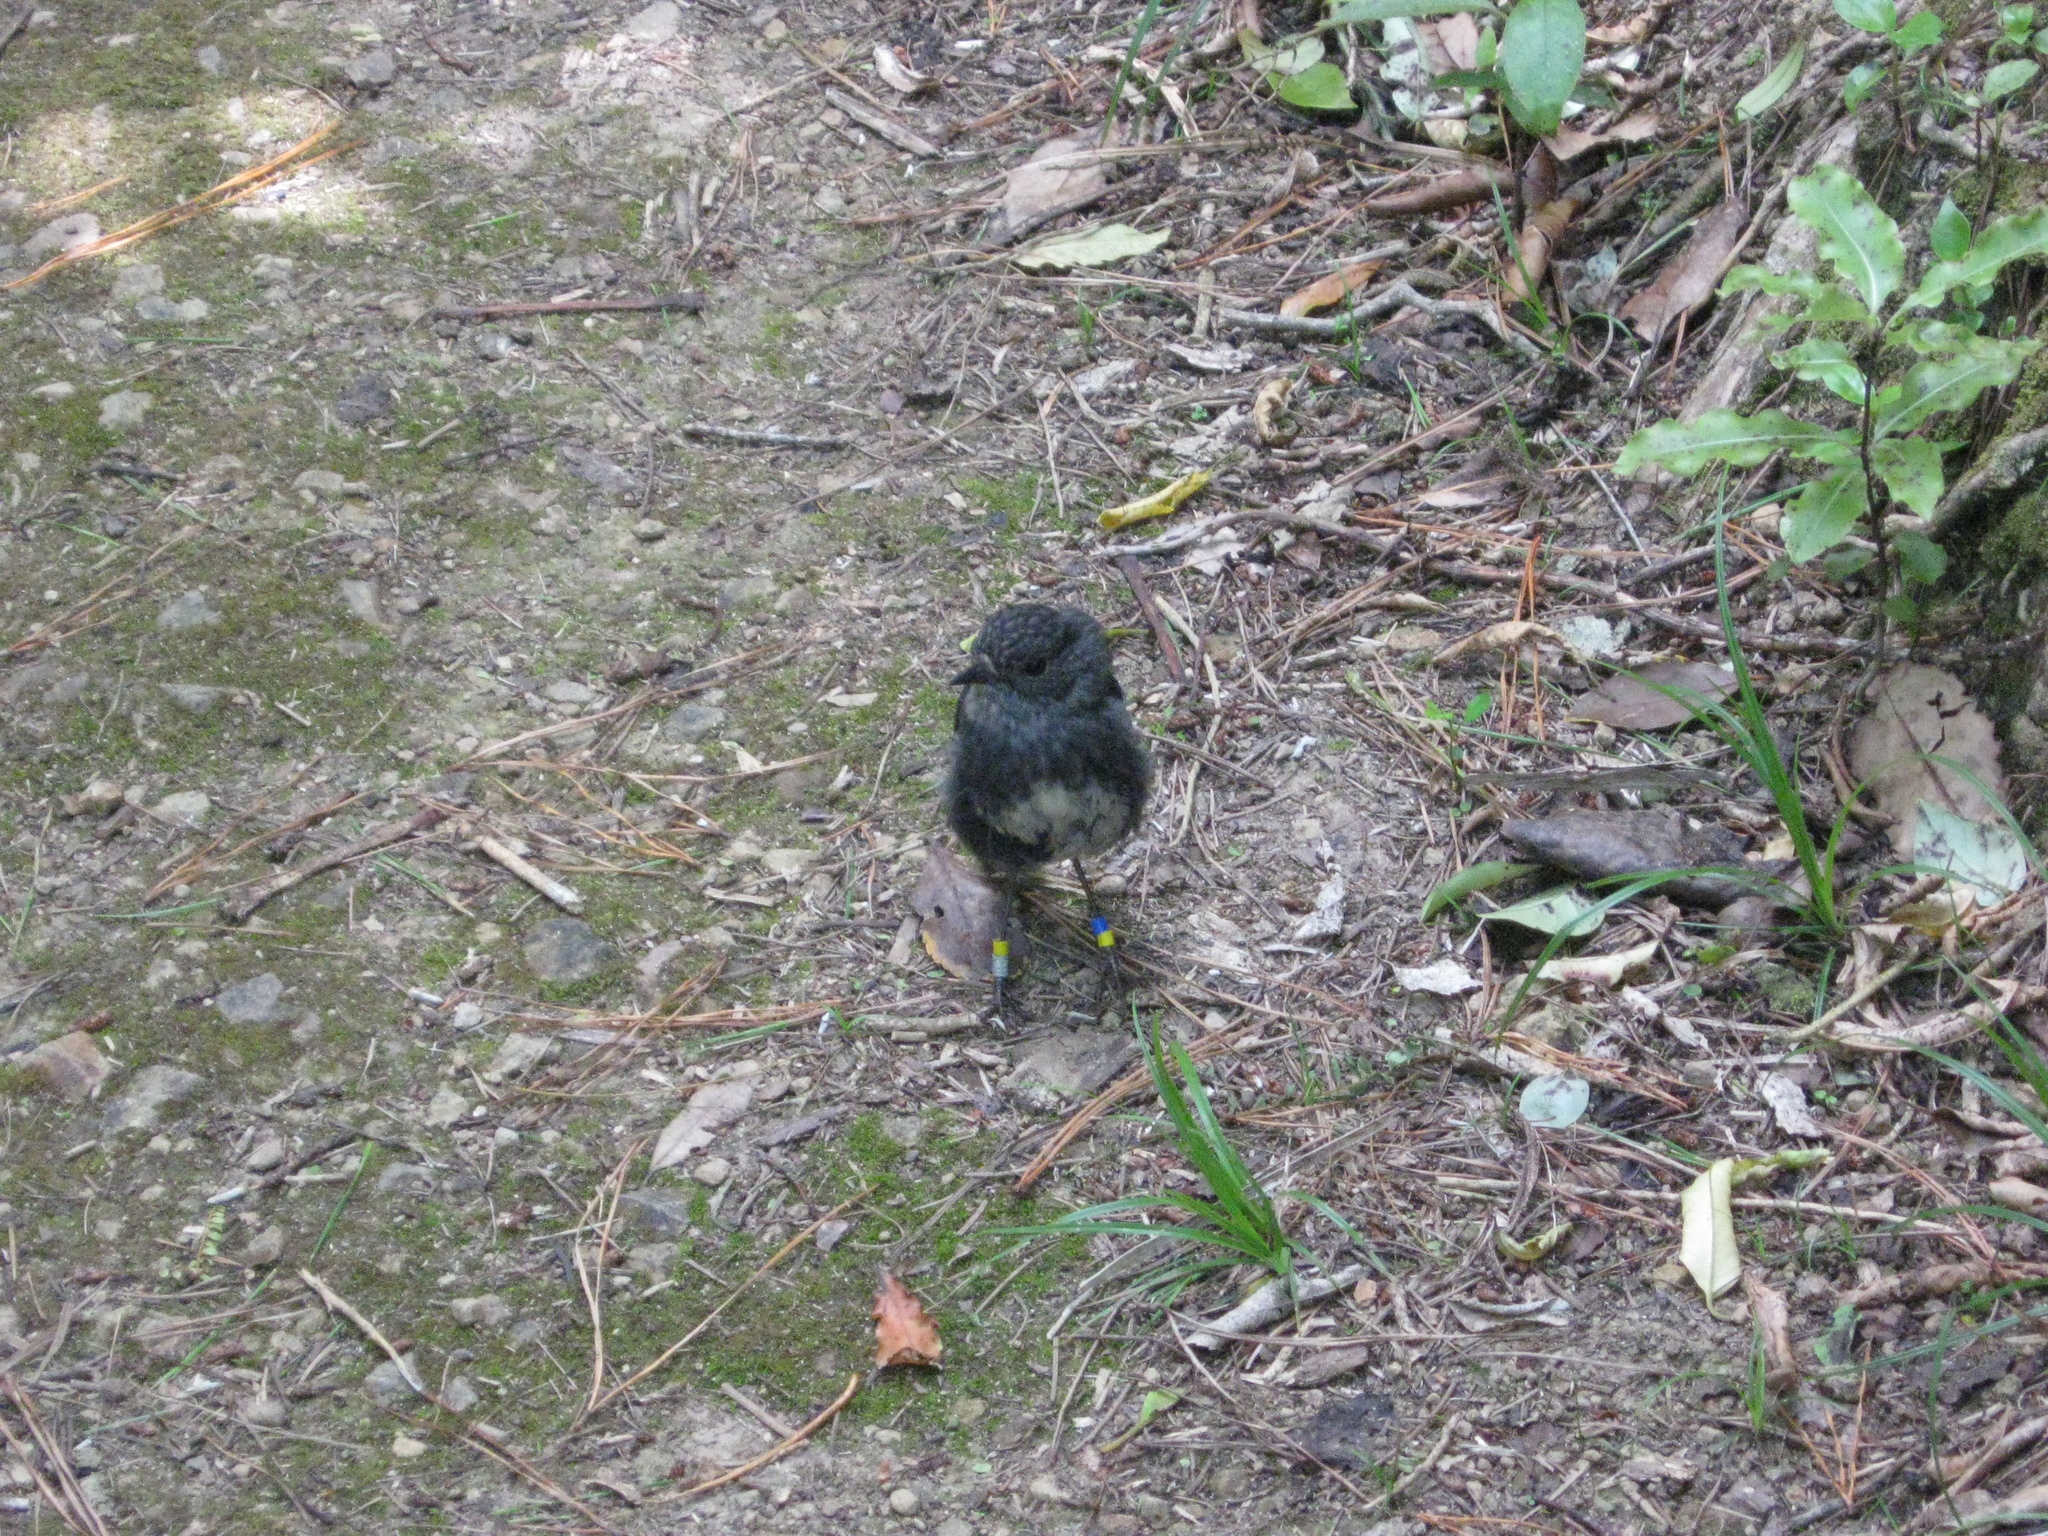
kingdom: Animalia
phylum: Chordata
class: Aves
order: Passeriformes
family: Petroicidae
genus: Petroica
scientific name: Petroica australis
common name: New zealand robin
